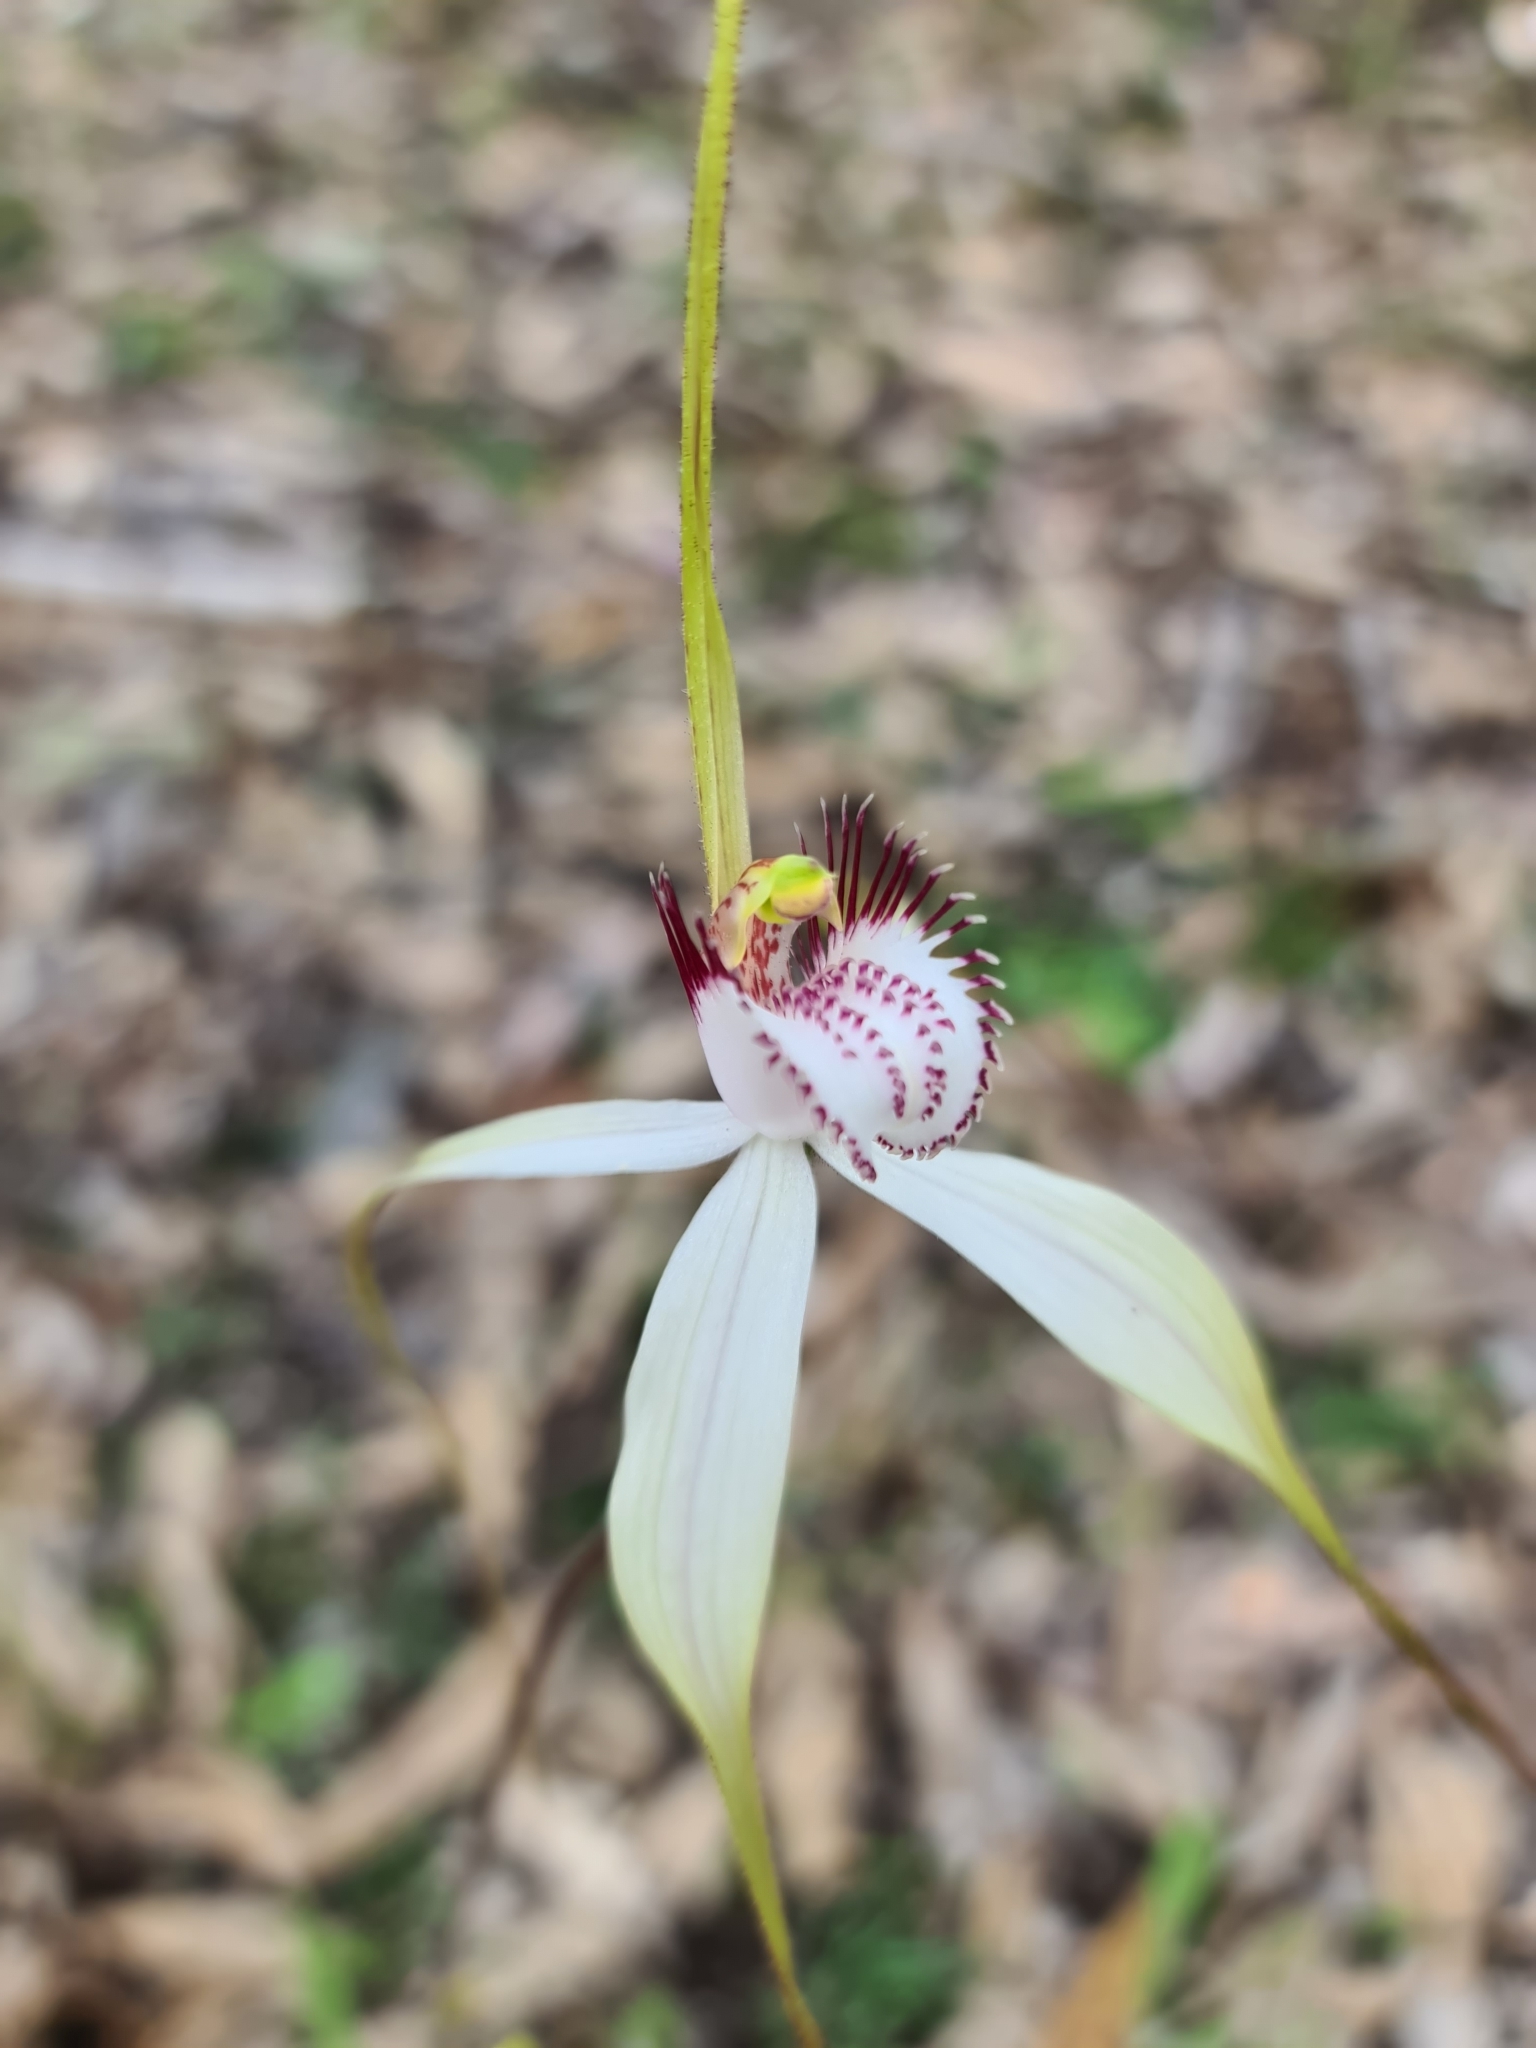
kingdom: Plantae
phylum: Tracheophyta
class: Liliopsida
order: Asparagales
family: Orchidaceae
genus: Caladenia
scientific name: Caladenia longicauda
